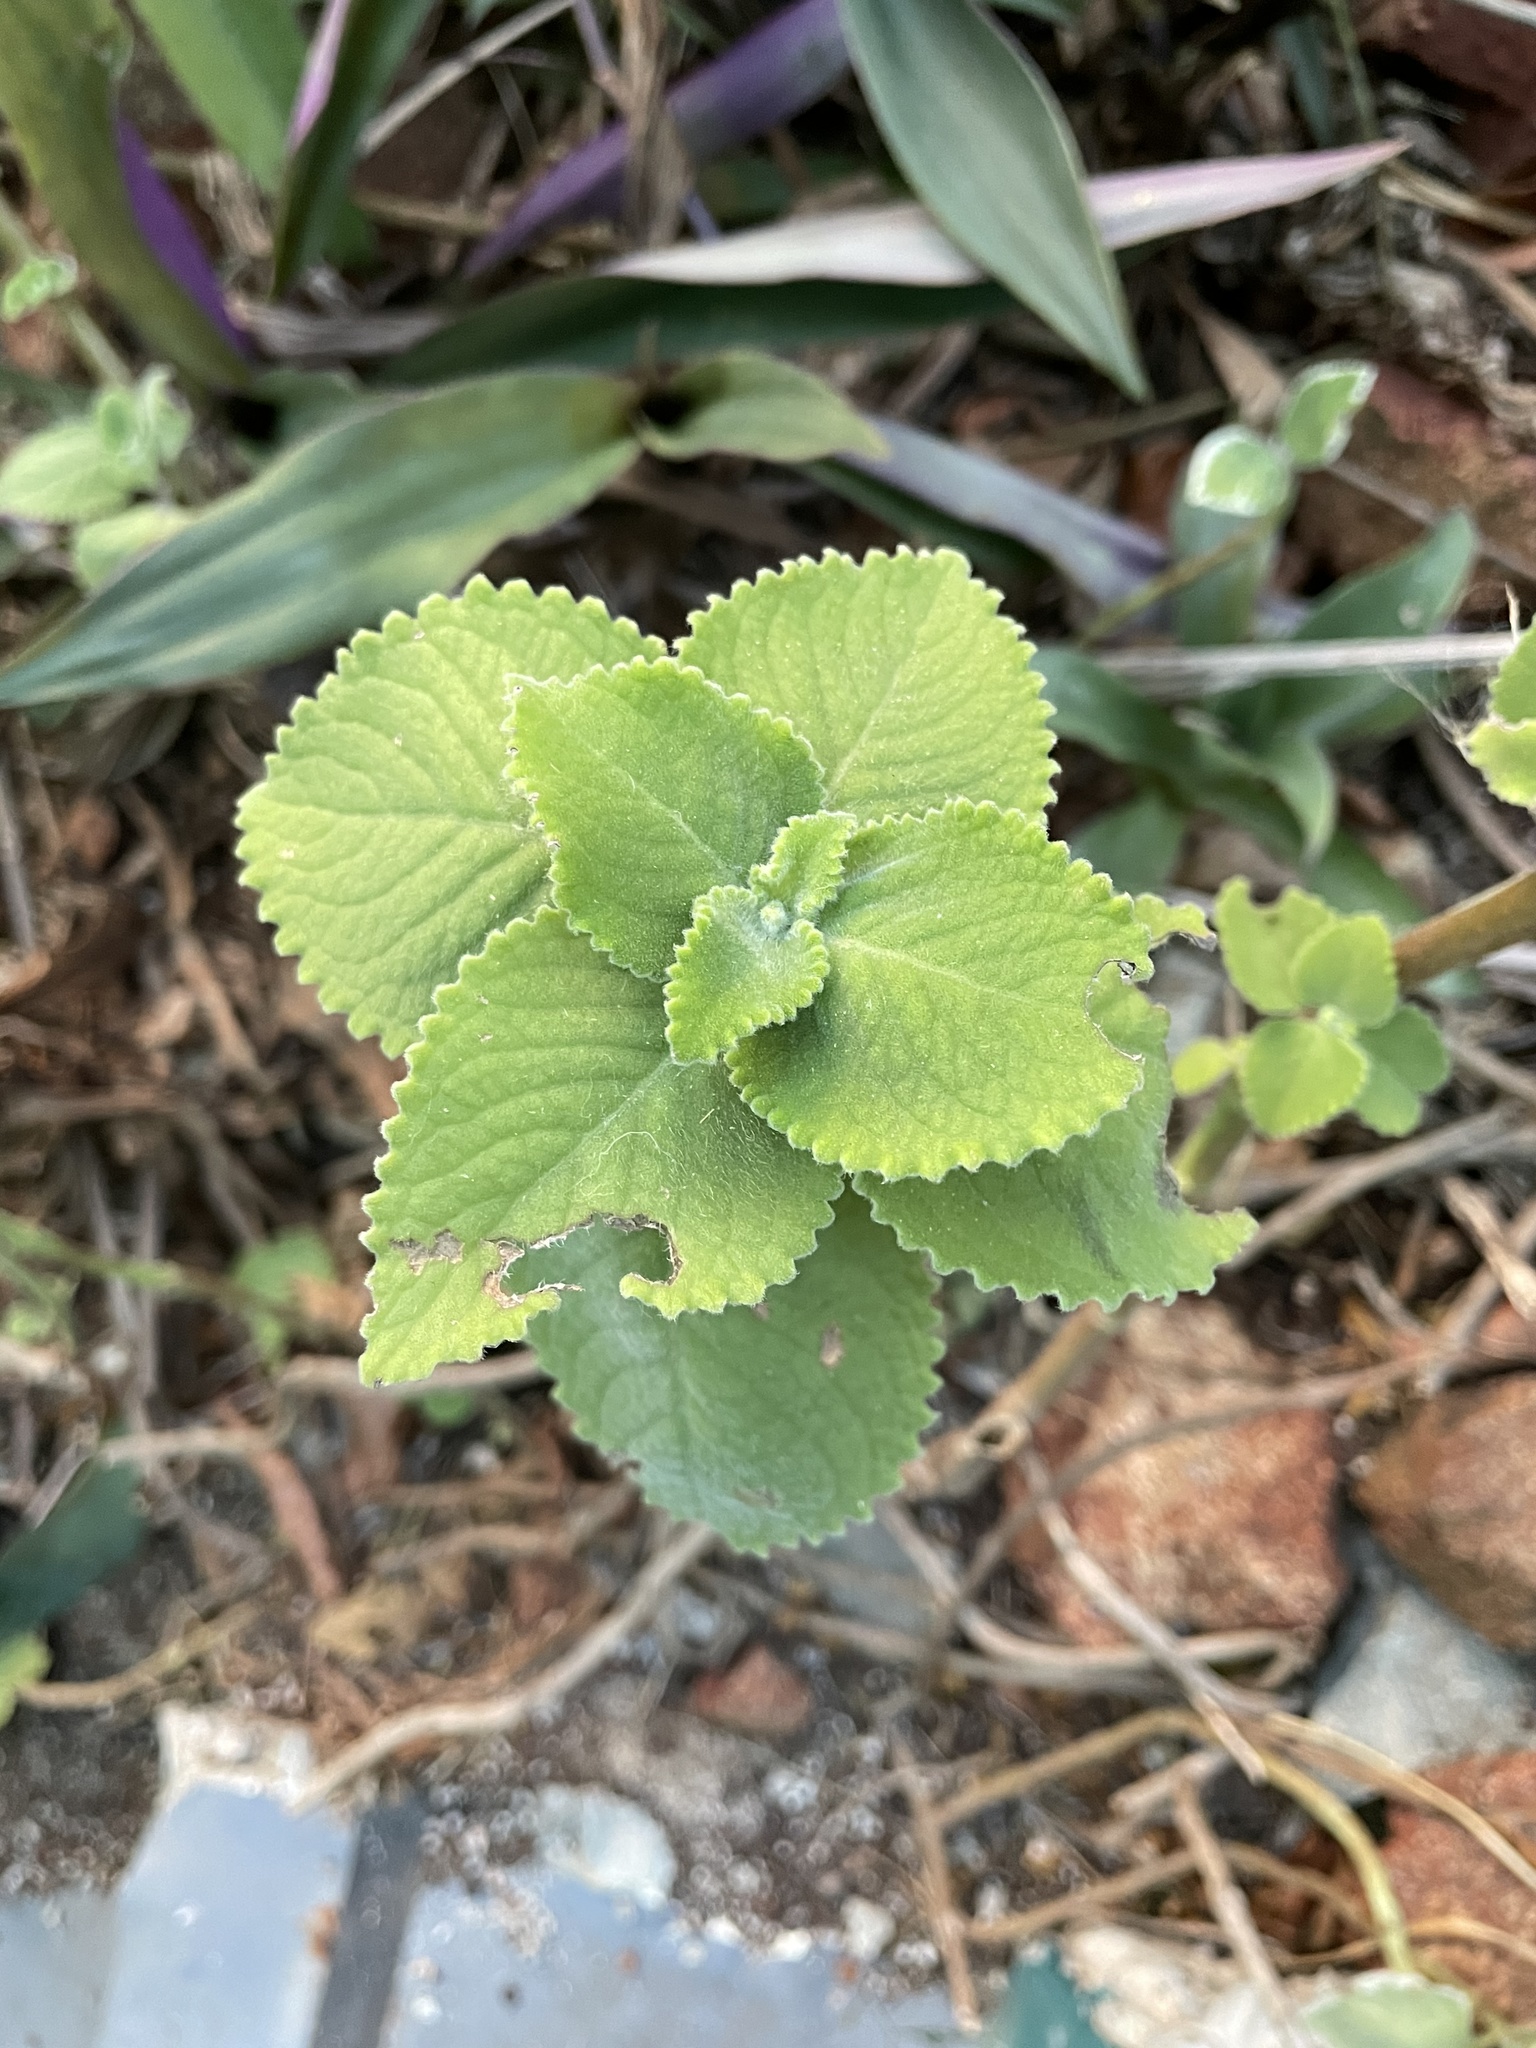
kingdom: Plantae
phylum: Tracheophyta
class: Magnoliopsida
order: Lamiales
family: Lamiaceae
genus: Coleus
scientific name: Coleus amboinicus
